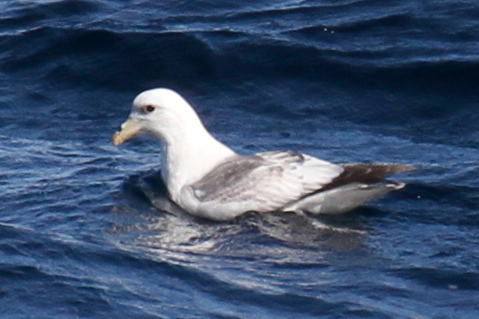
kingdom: Animalia
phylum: Chordata
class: Aves
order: Procellariiformes
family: Procellariidae
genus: Fulmarus
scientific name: Fulmarus glacialis
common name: Northern fulmar
